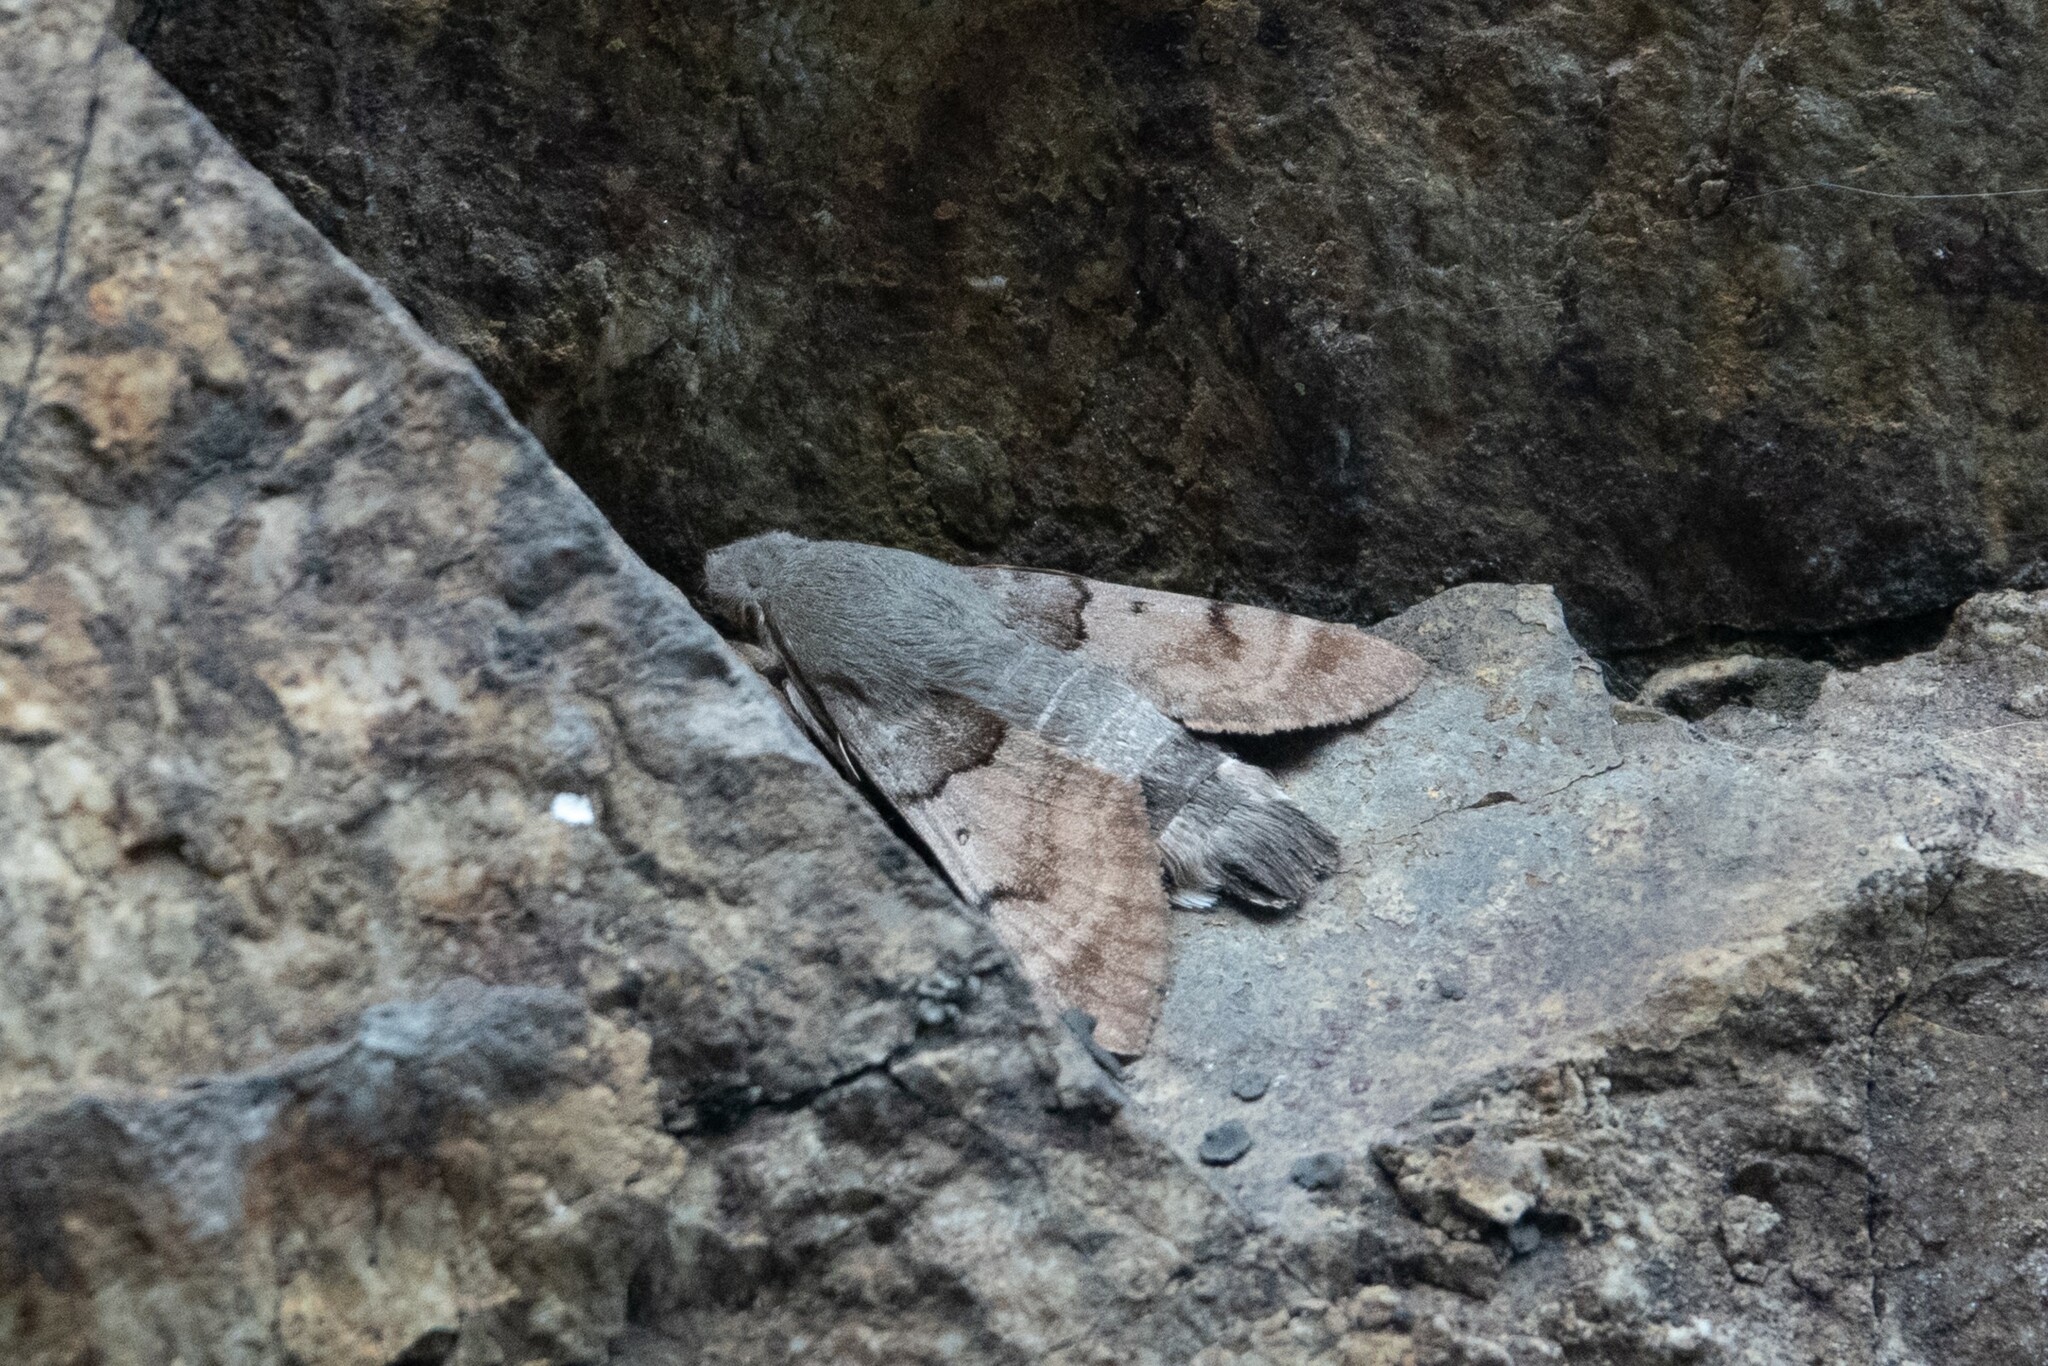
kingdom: Animalia
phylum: Arthropoda
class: Insecta
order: Lepidoptera
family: Sphingidae
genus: Macroglossum
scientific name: Macroglossum stellatarum
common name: Humming-bird hawk-moth
